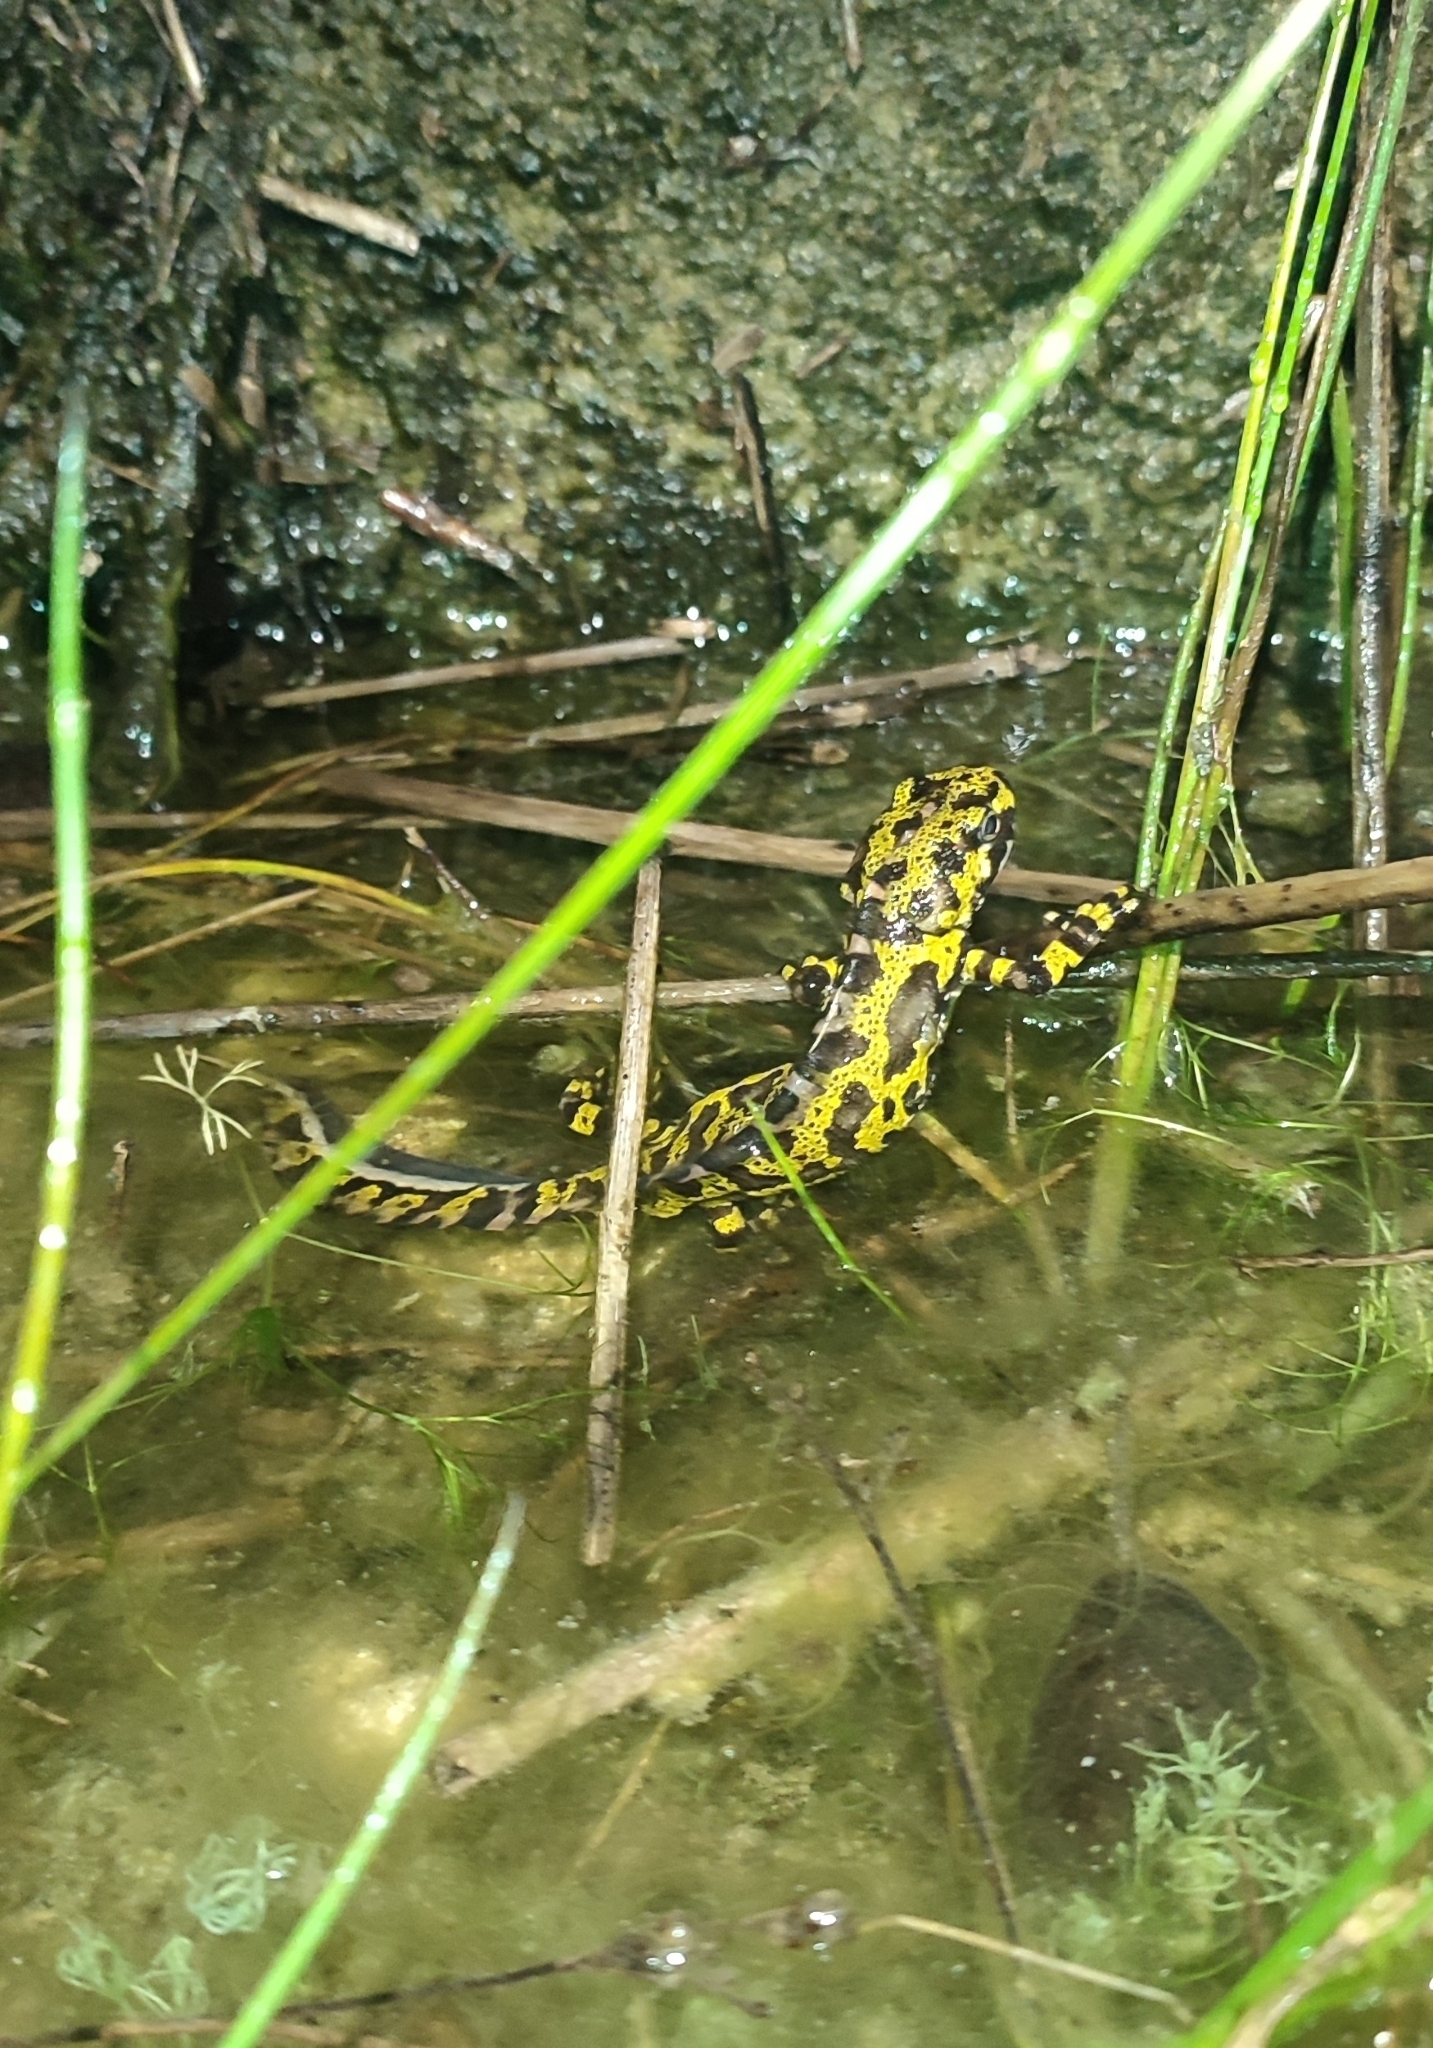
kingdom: Animalia
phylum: Chordata
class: Amphibia
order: Caudata
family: Salamandridae
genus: Triturus
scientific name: Triturus marmoratus
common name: Marbled newt
